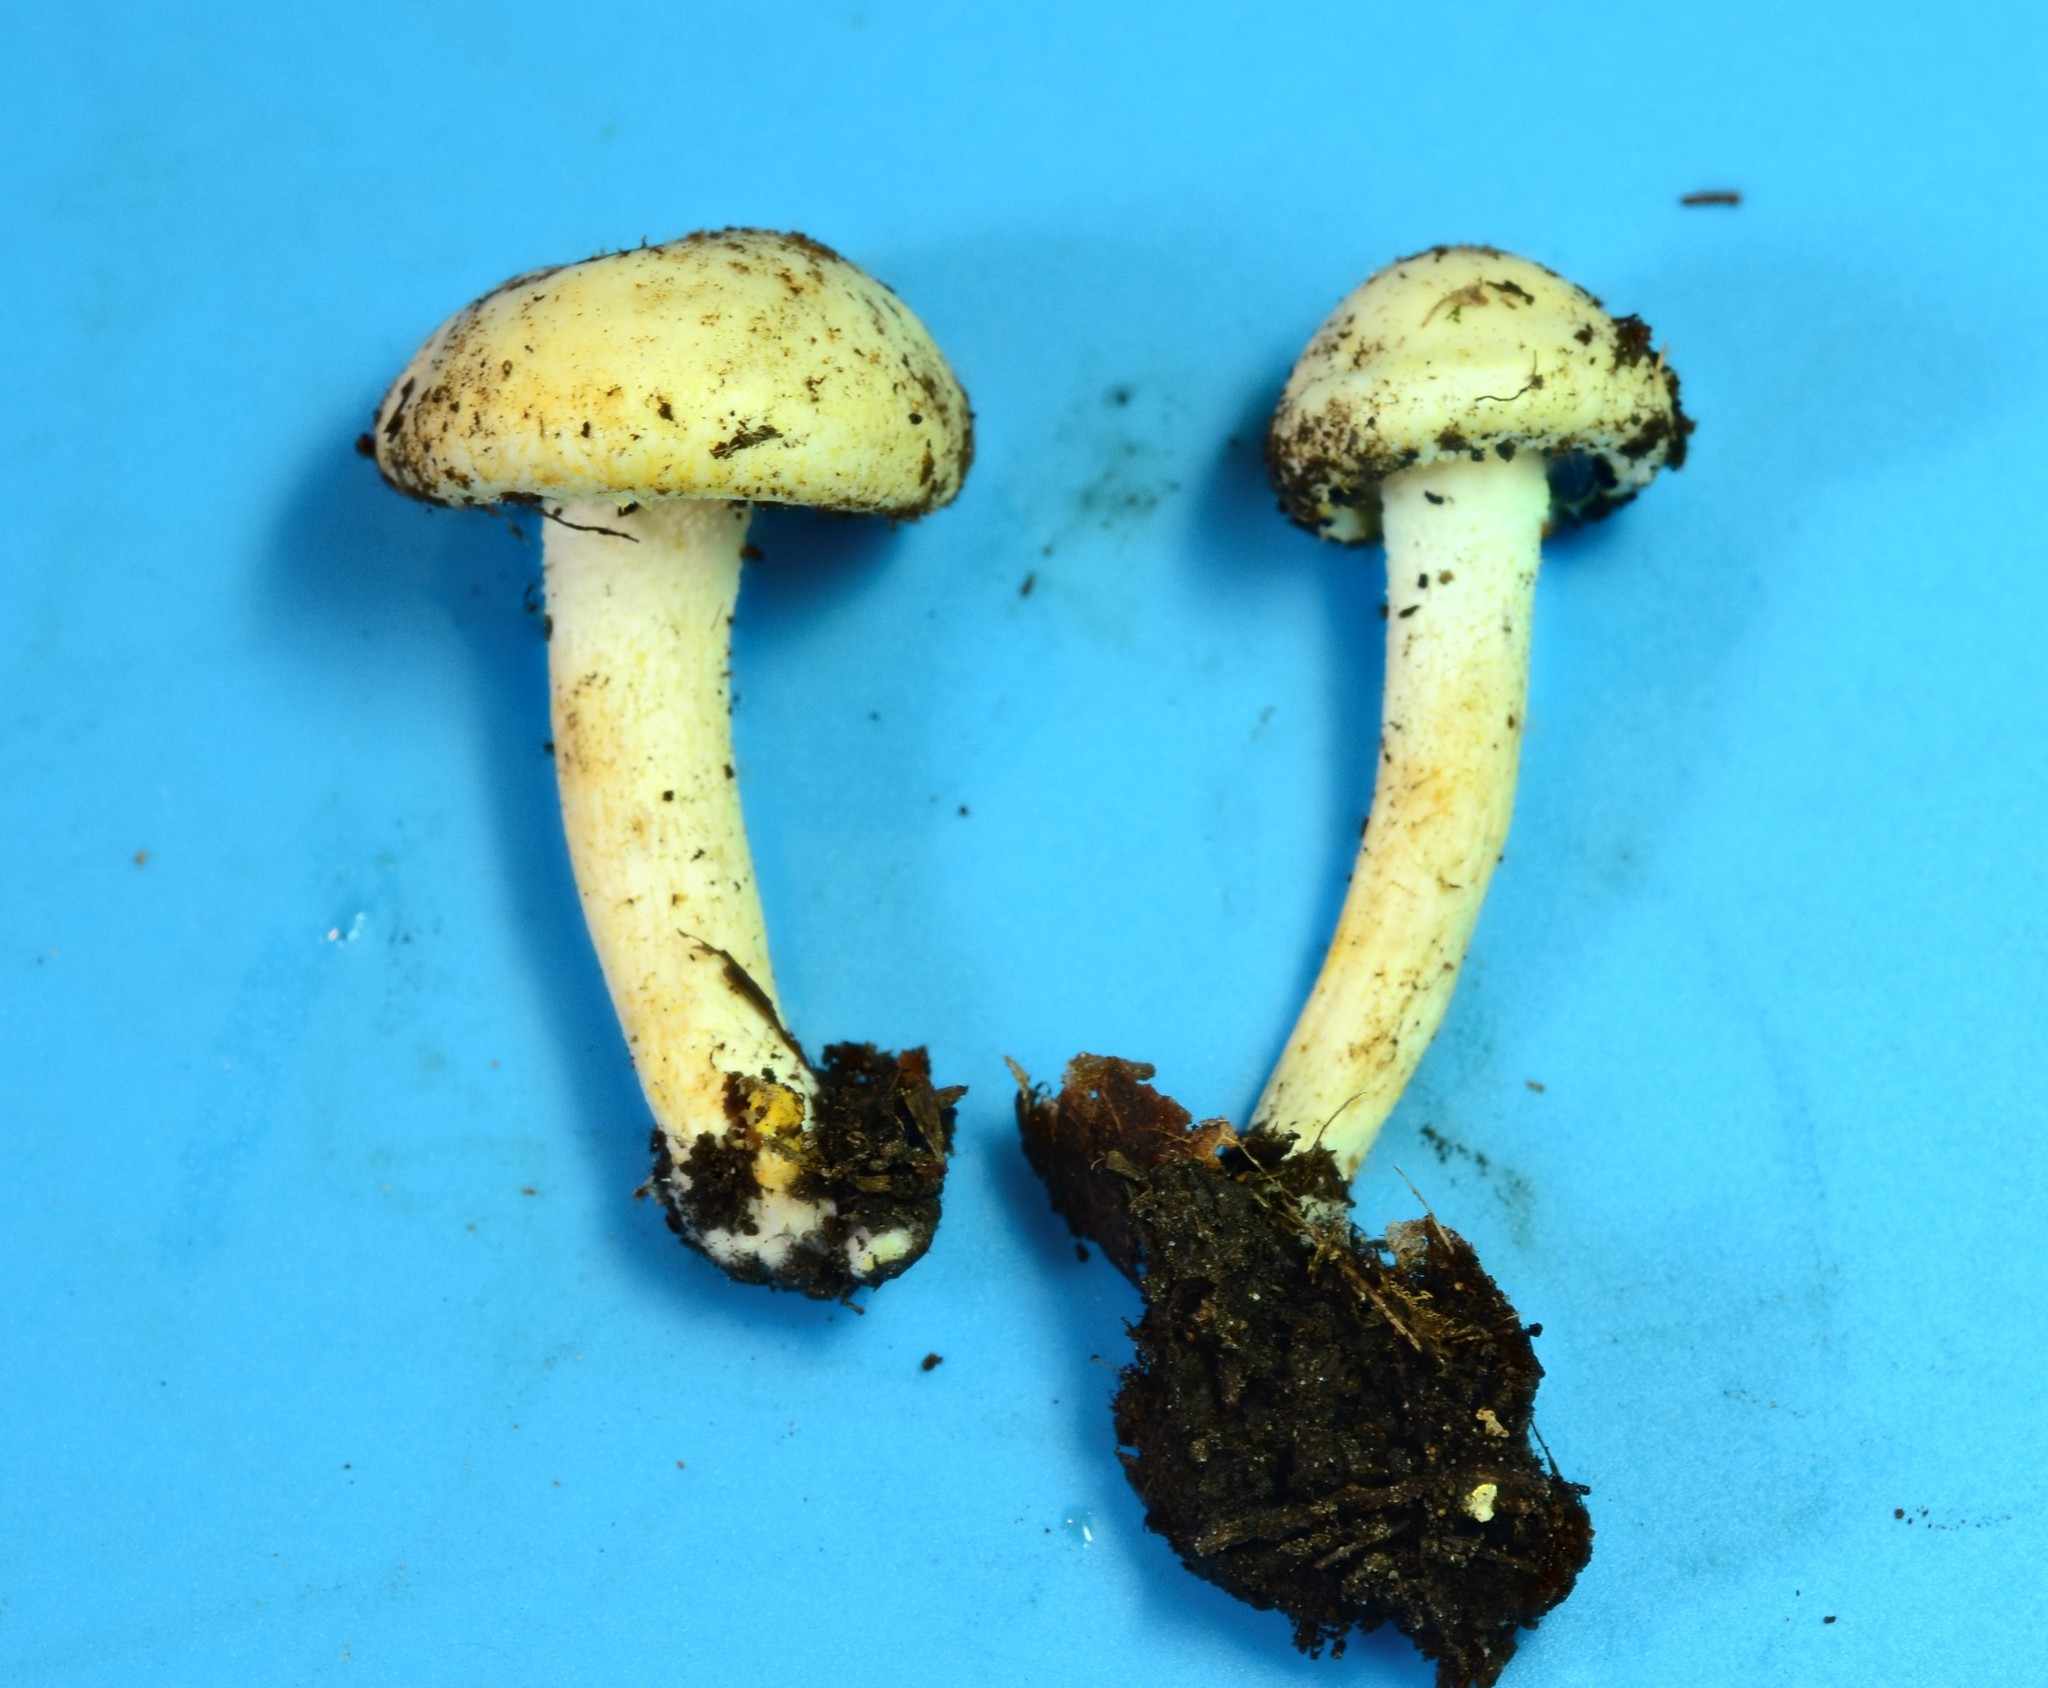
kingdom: Fungi
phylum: Basidiomycota
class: Agaricomycetes
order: Agaricales
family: Hygrophoraceae
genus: Hygrophorus
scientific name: Hygrophorus chrysodon
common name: Gold flecked woodwax
